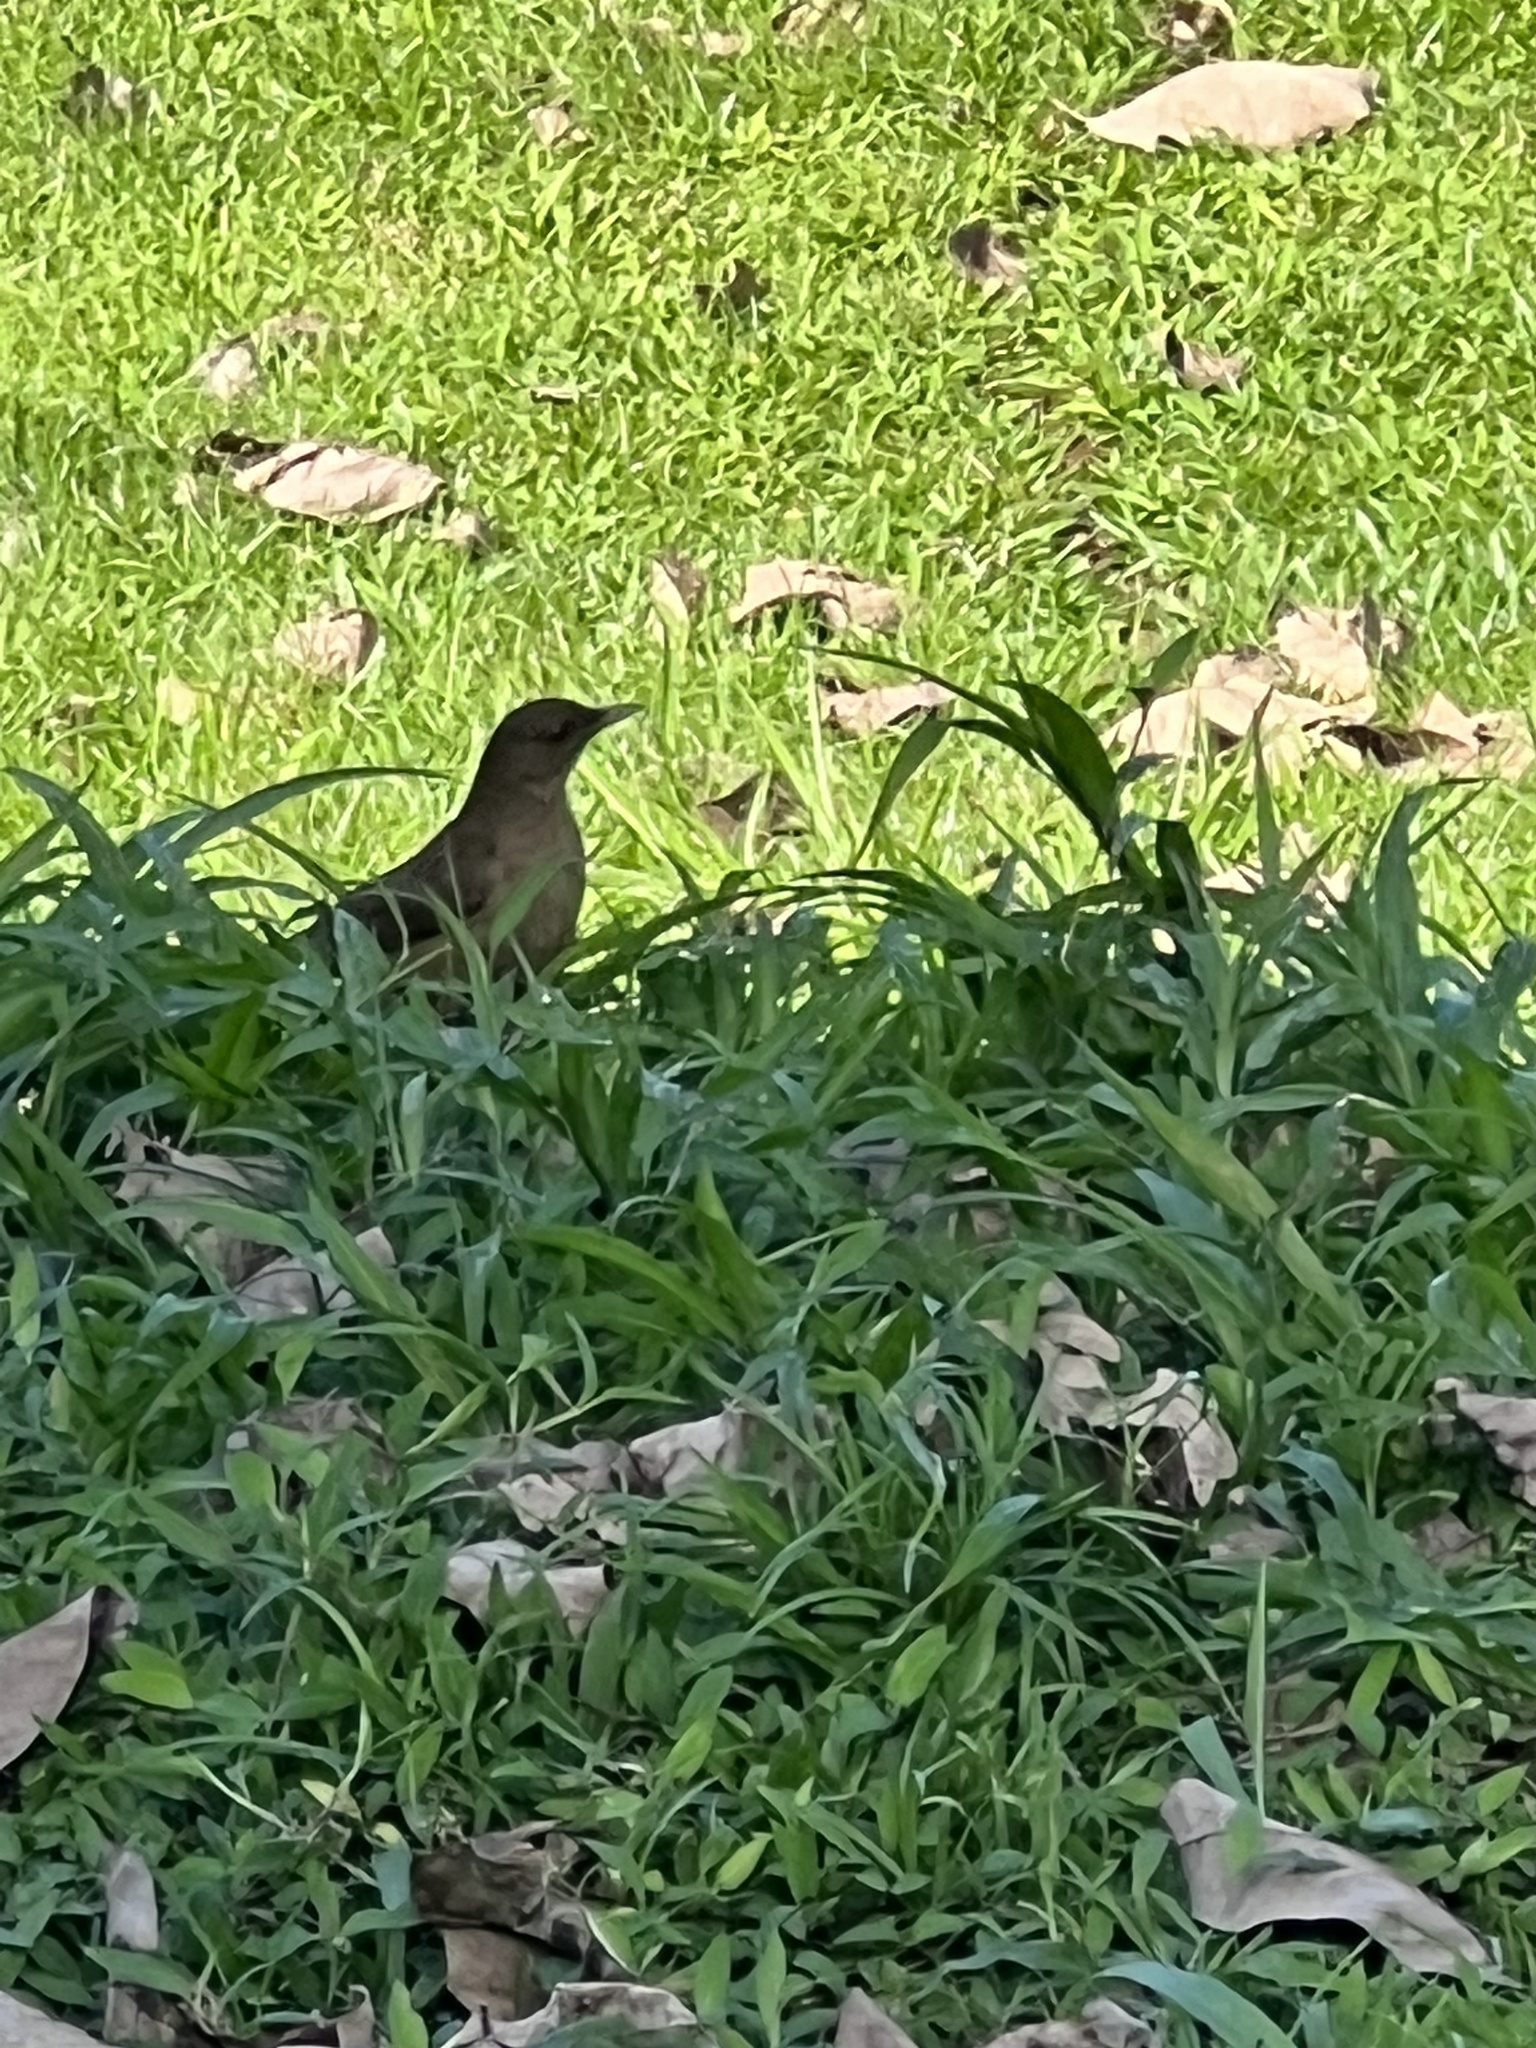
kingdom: Animalia
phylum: Chordata
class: Aves
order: Passeriformes
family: Turdidae
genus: Turdus
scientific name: Turdus grayi
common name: Clay-colored thrush
